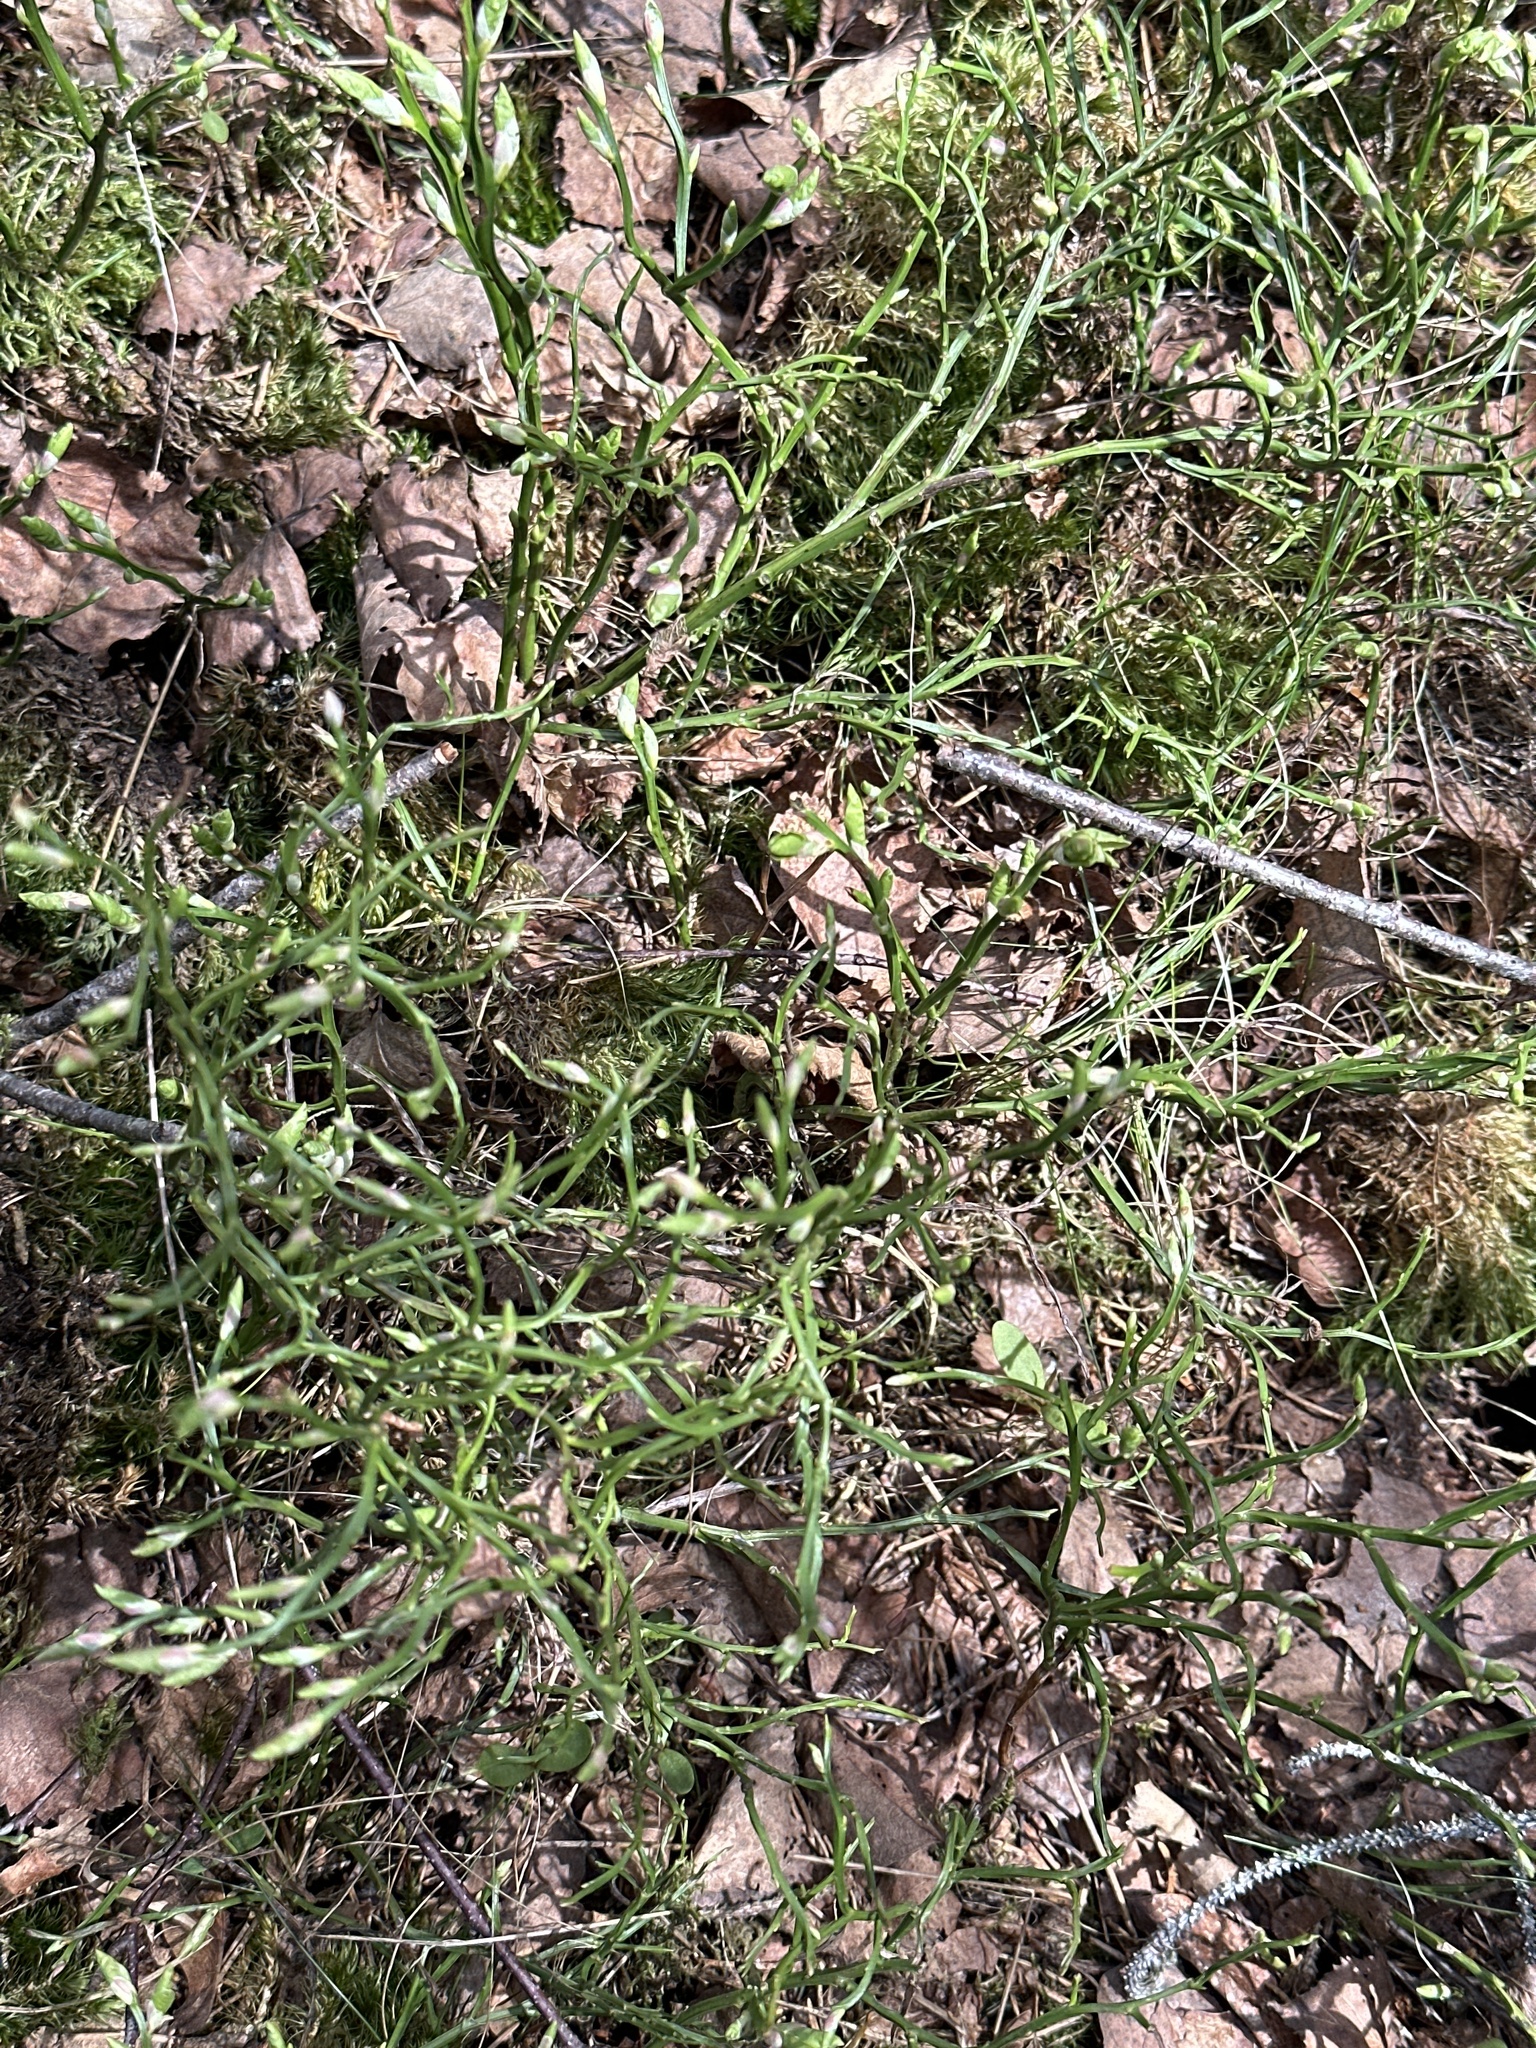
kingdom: Plantae
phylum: Tracheophyta
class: Magnoliopsida
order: Ericales
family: Ericaceae
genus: Vaccinium
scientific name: Vaccinium myrtillus
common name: Bilberry
